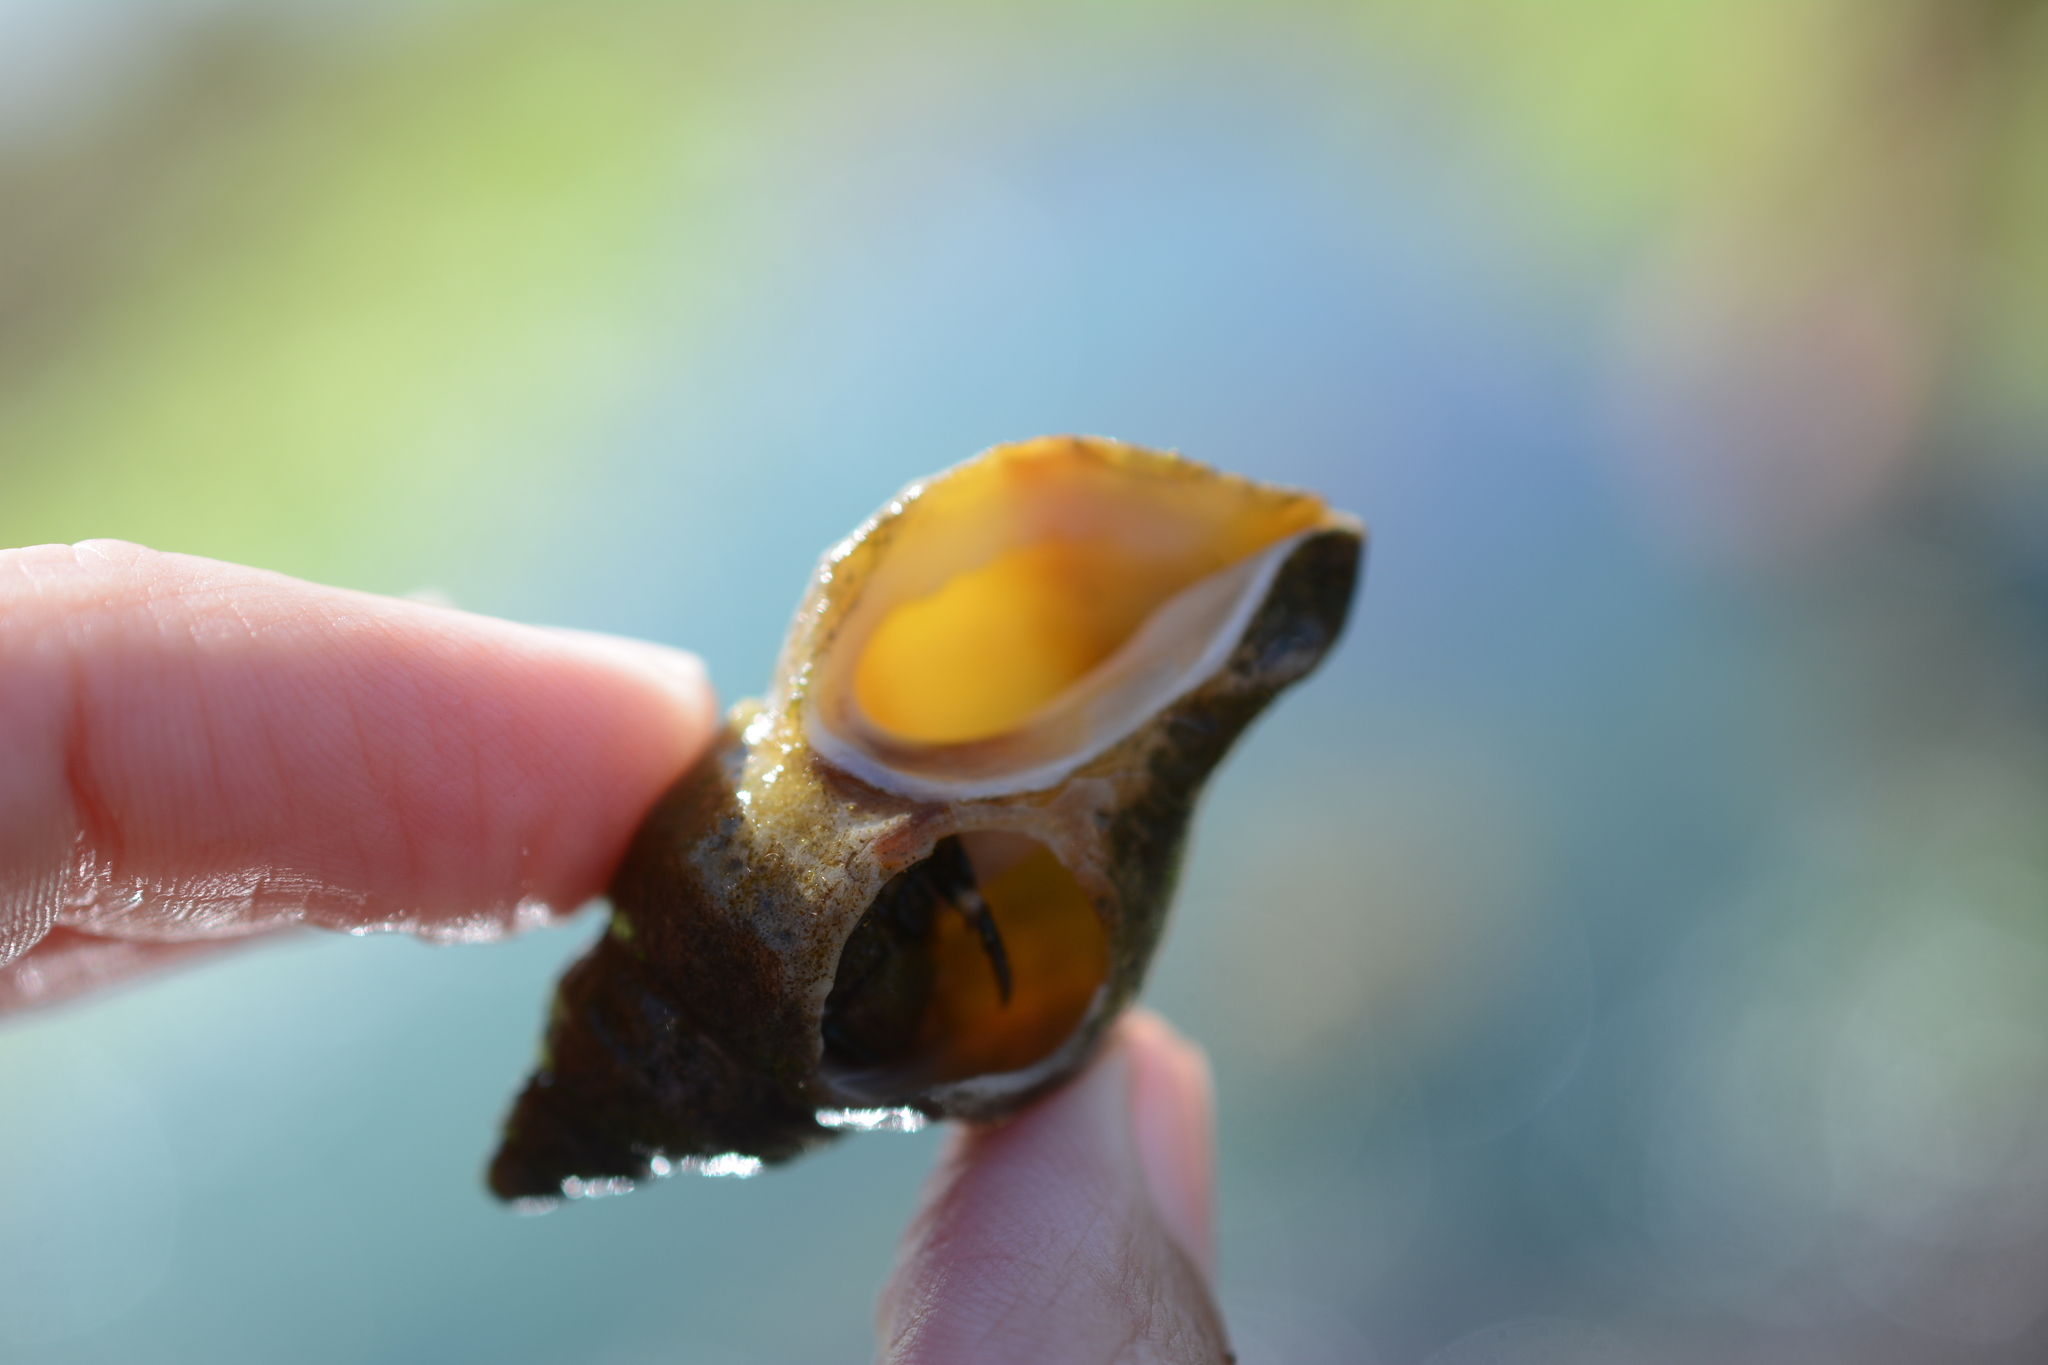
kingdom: Animalia
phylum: Mollusca
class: Gastropoda
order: Neogastropoda
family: Muricidae
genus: Nucella
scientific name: Nucella lamellosa
